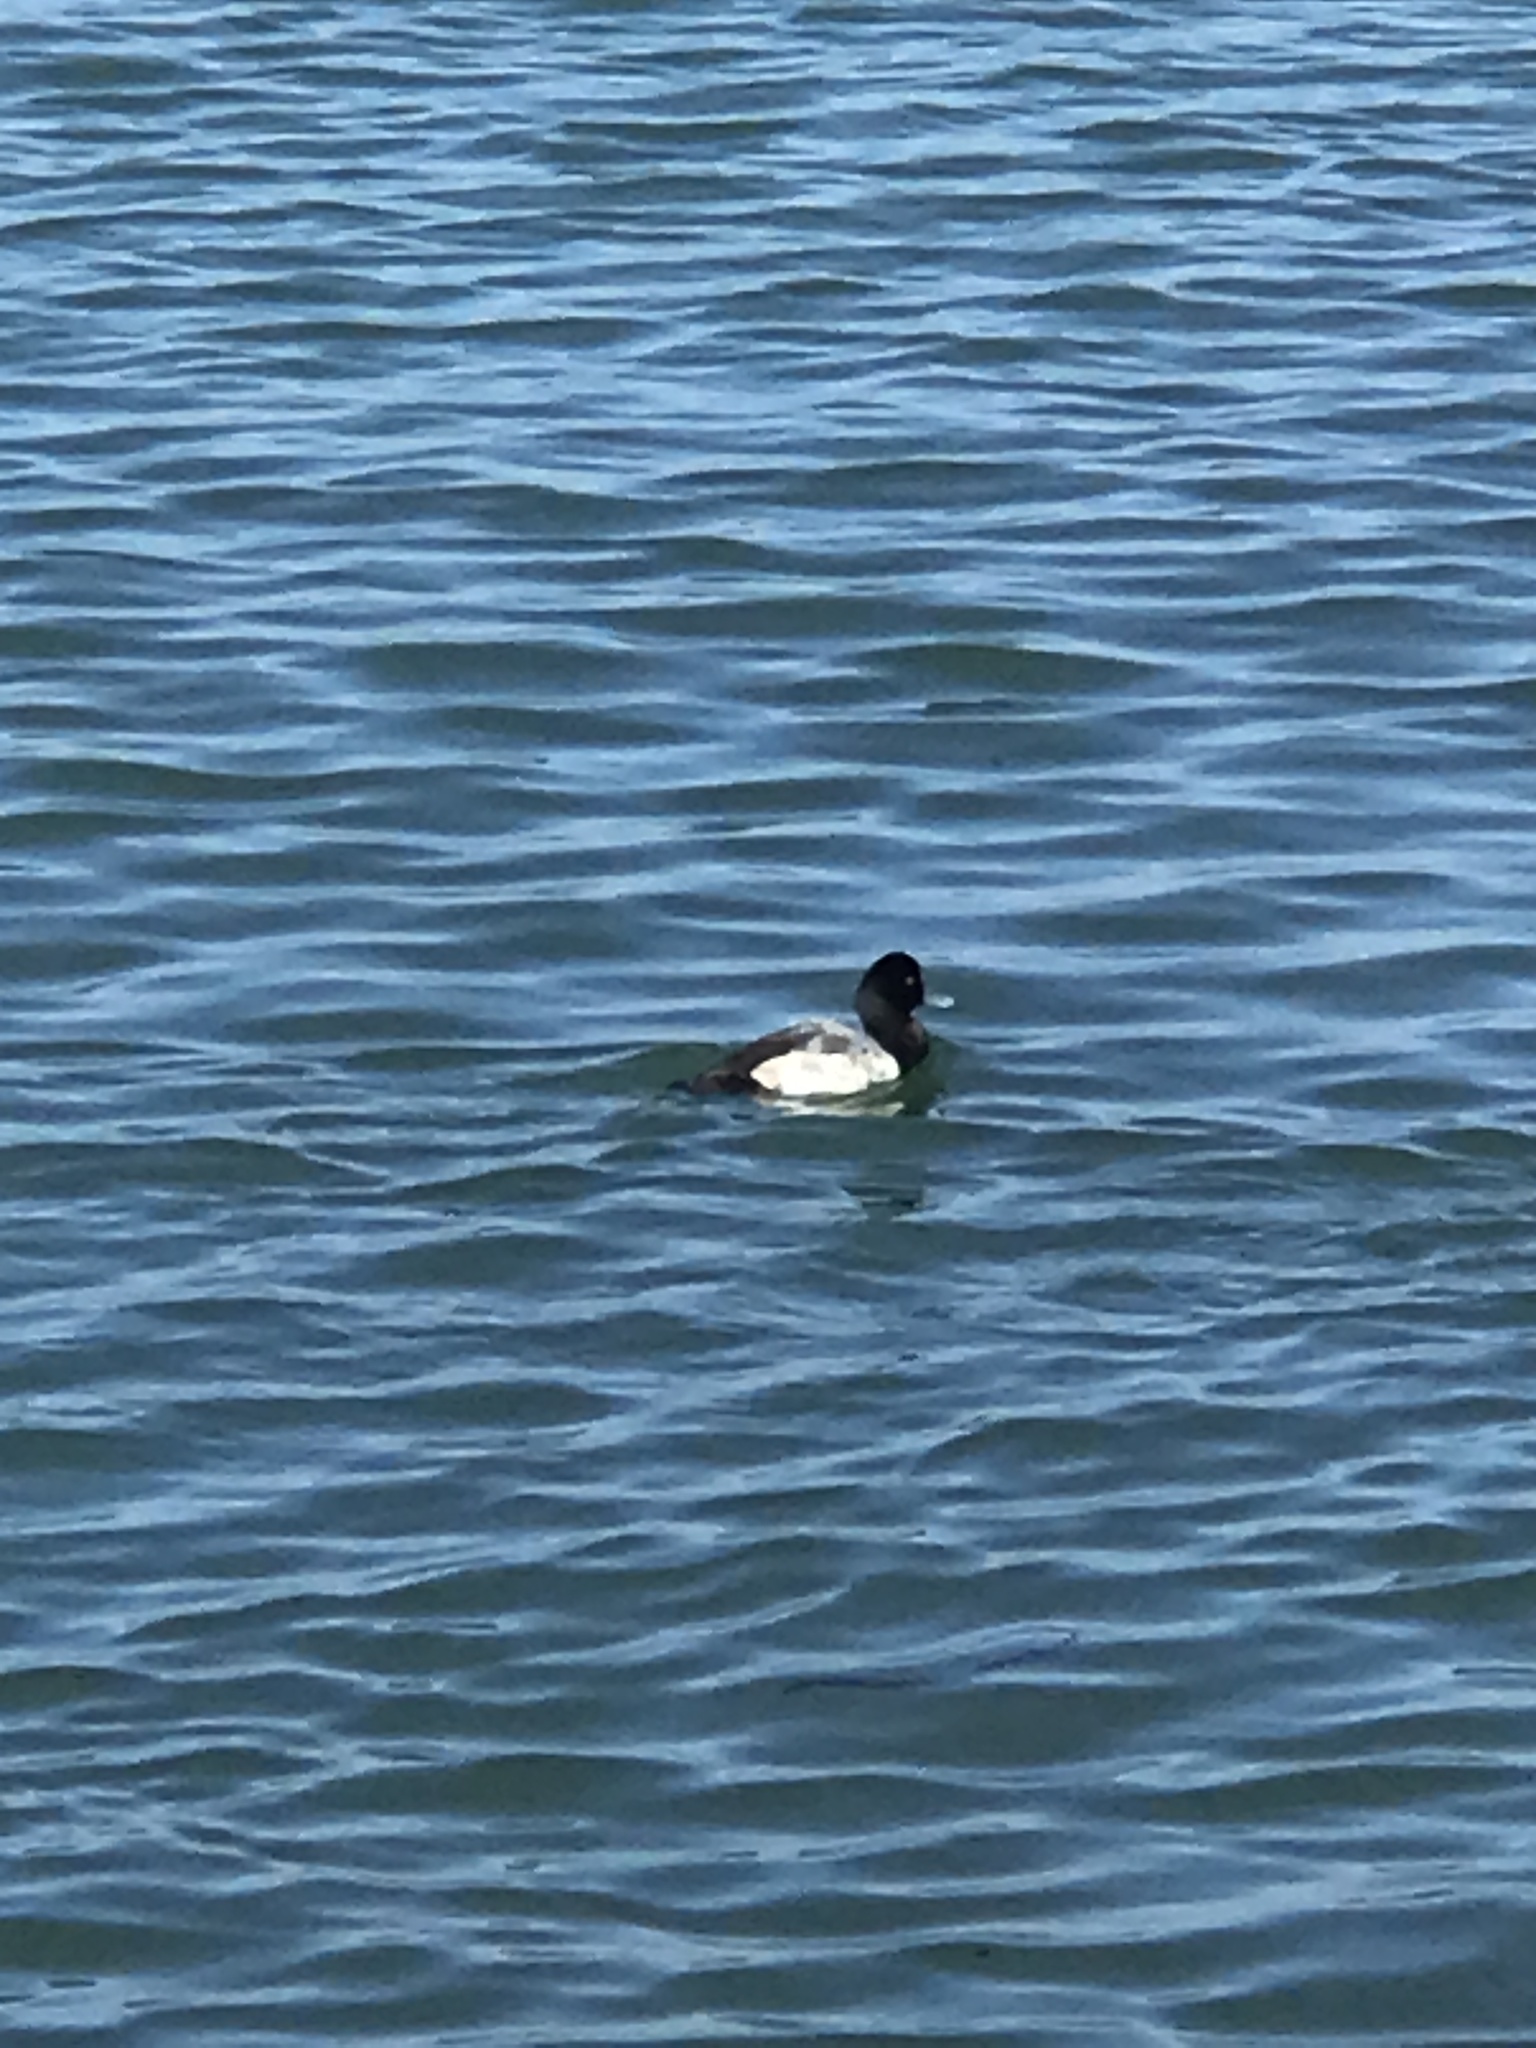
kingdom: Animalia
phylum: Chordata
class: Aves
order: Anseriformes
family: Anatidae
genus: Aythya
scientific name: Aythya marila
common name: Greater scaup
